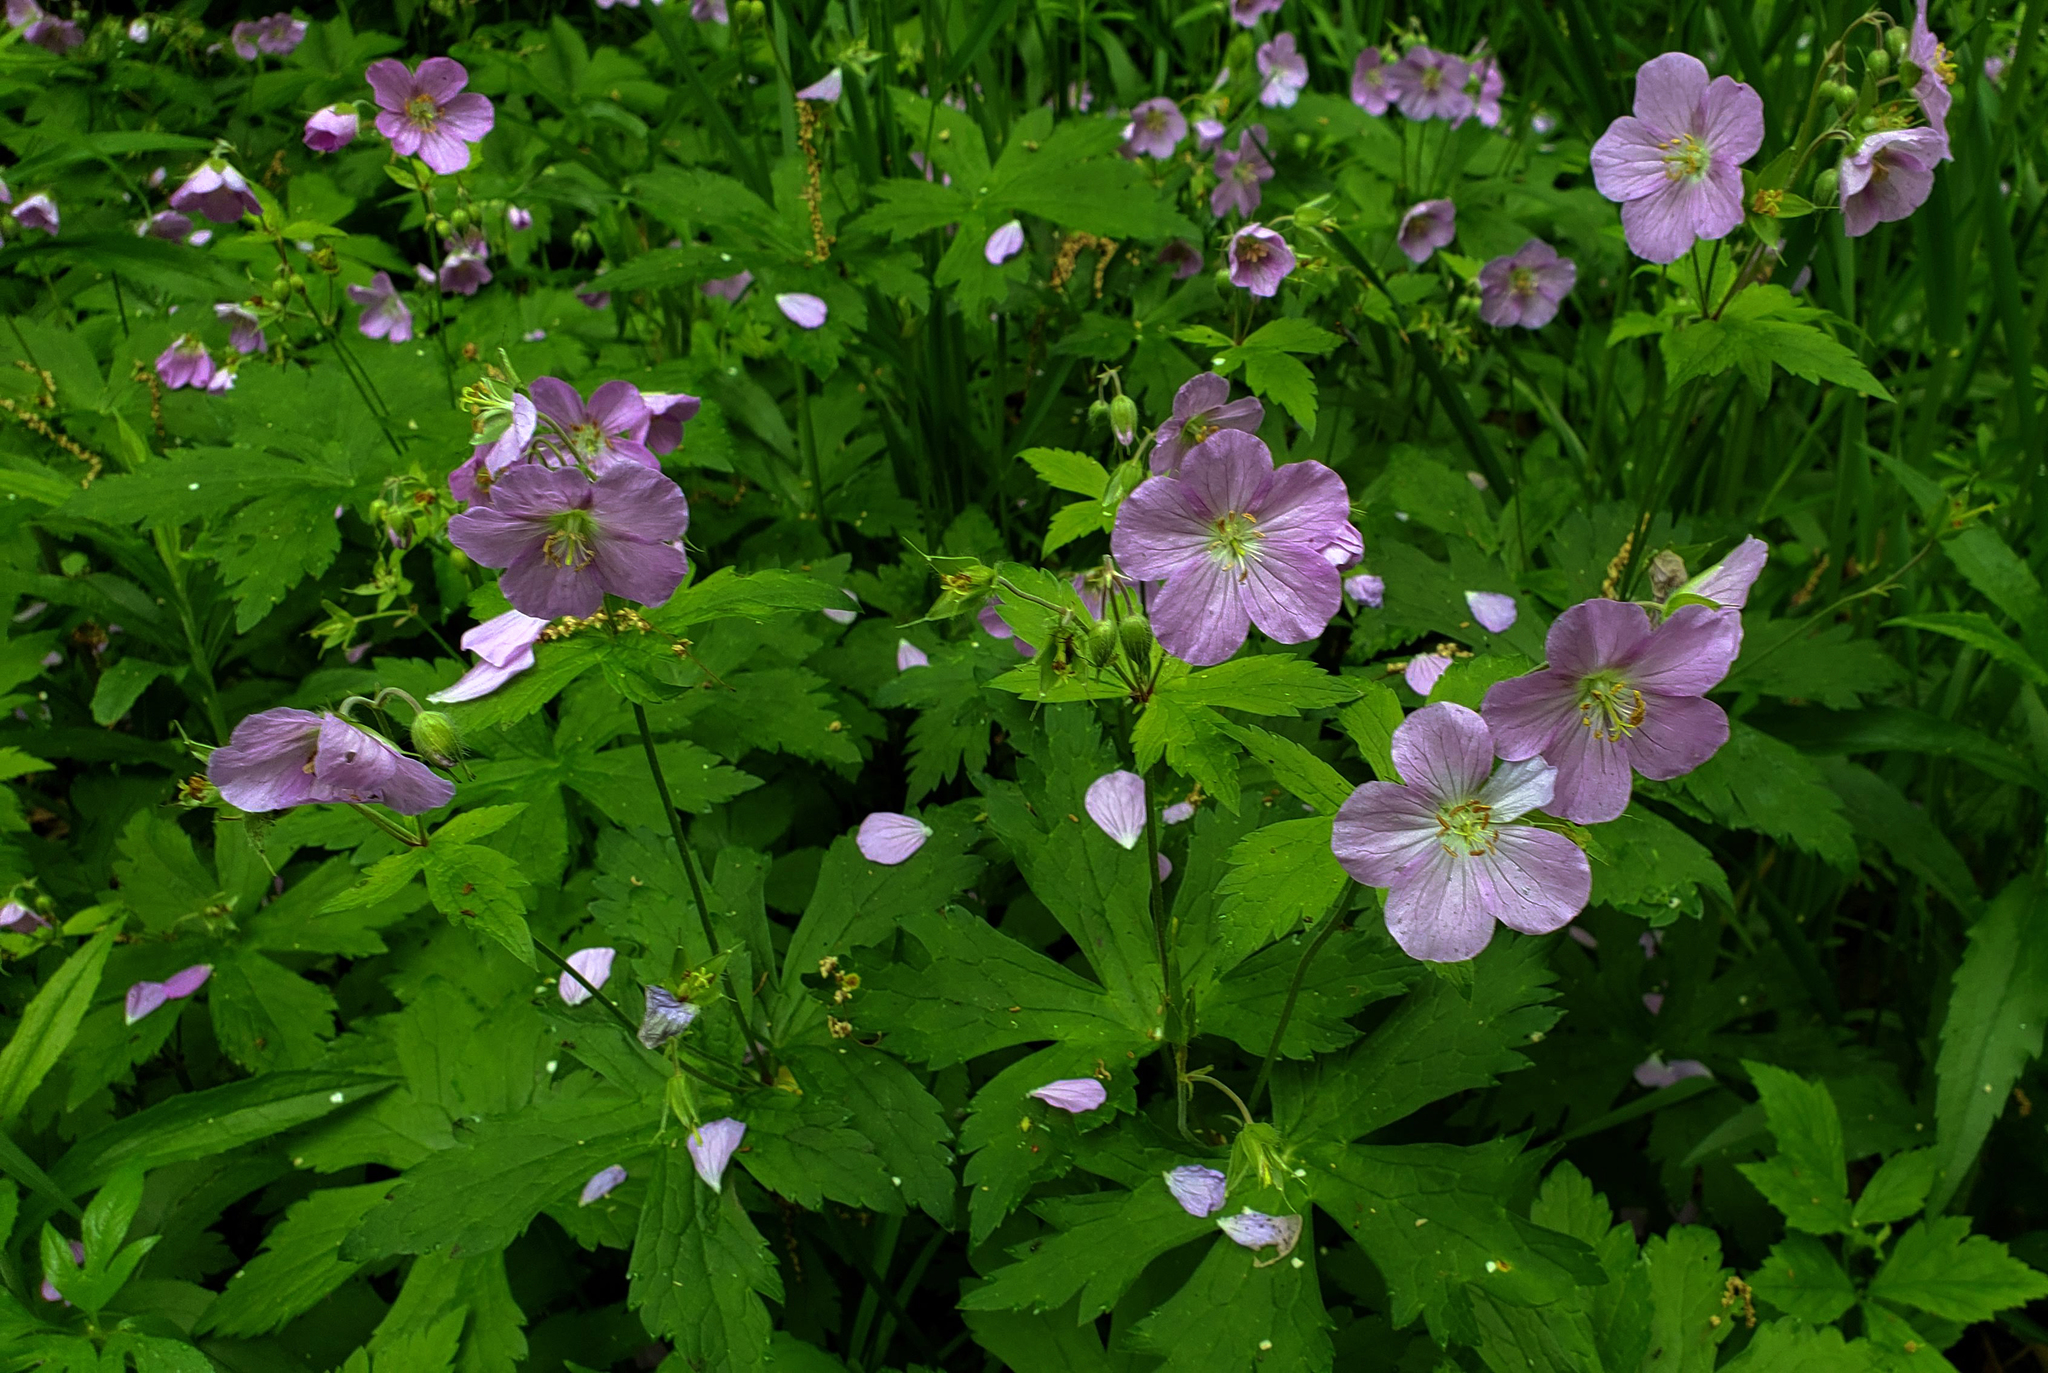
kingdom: Plantae
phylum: Tracheophyta
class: Magnoliopsida
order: Geraniales
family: Geraniaceae
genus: Geranium
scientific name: Geranium maculatum
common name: Spotted geranium
